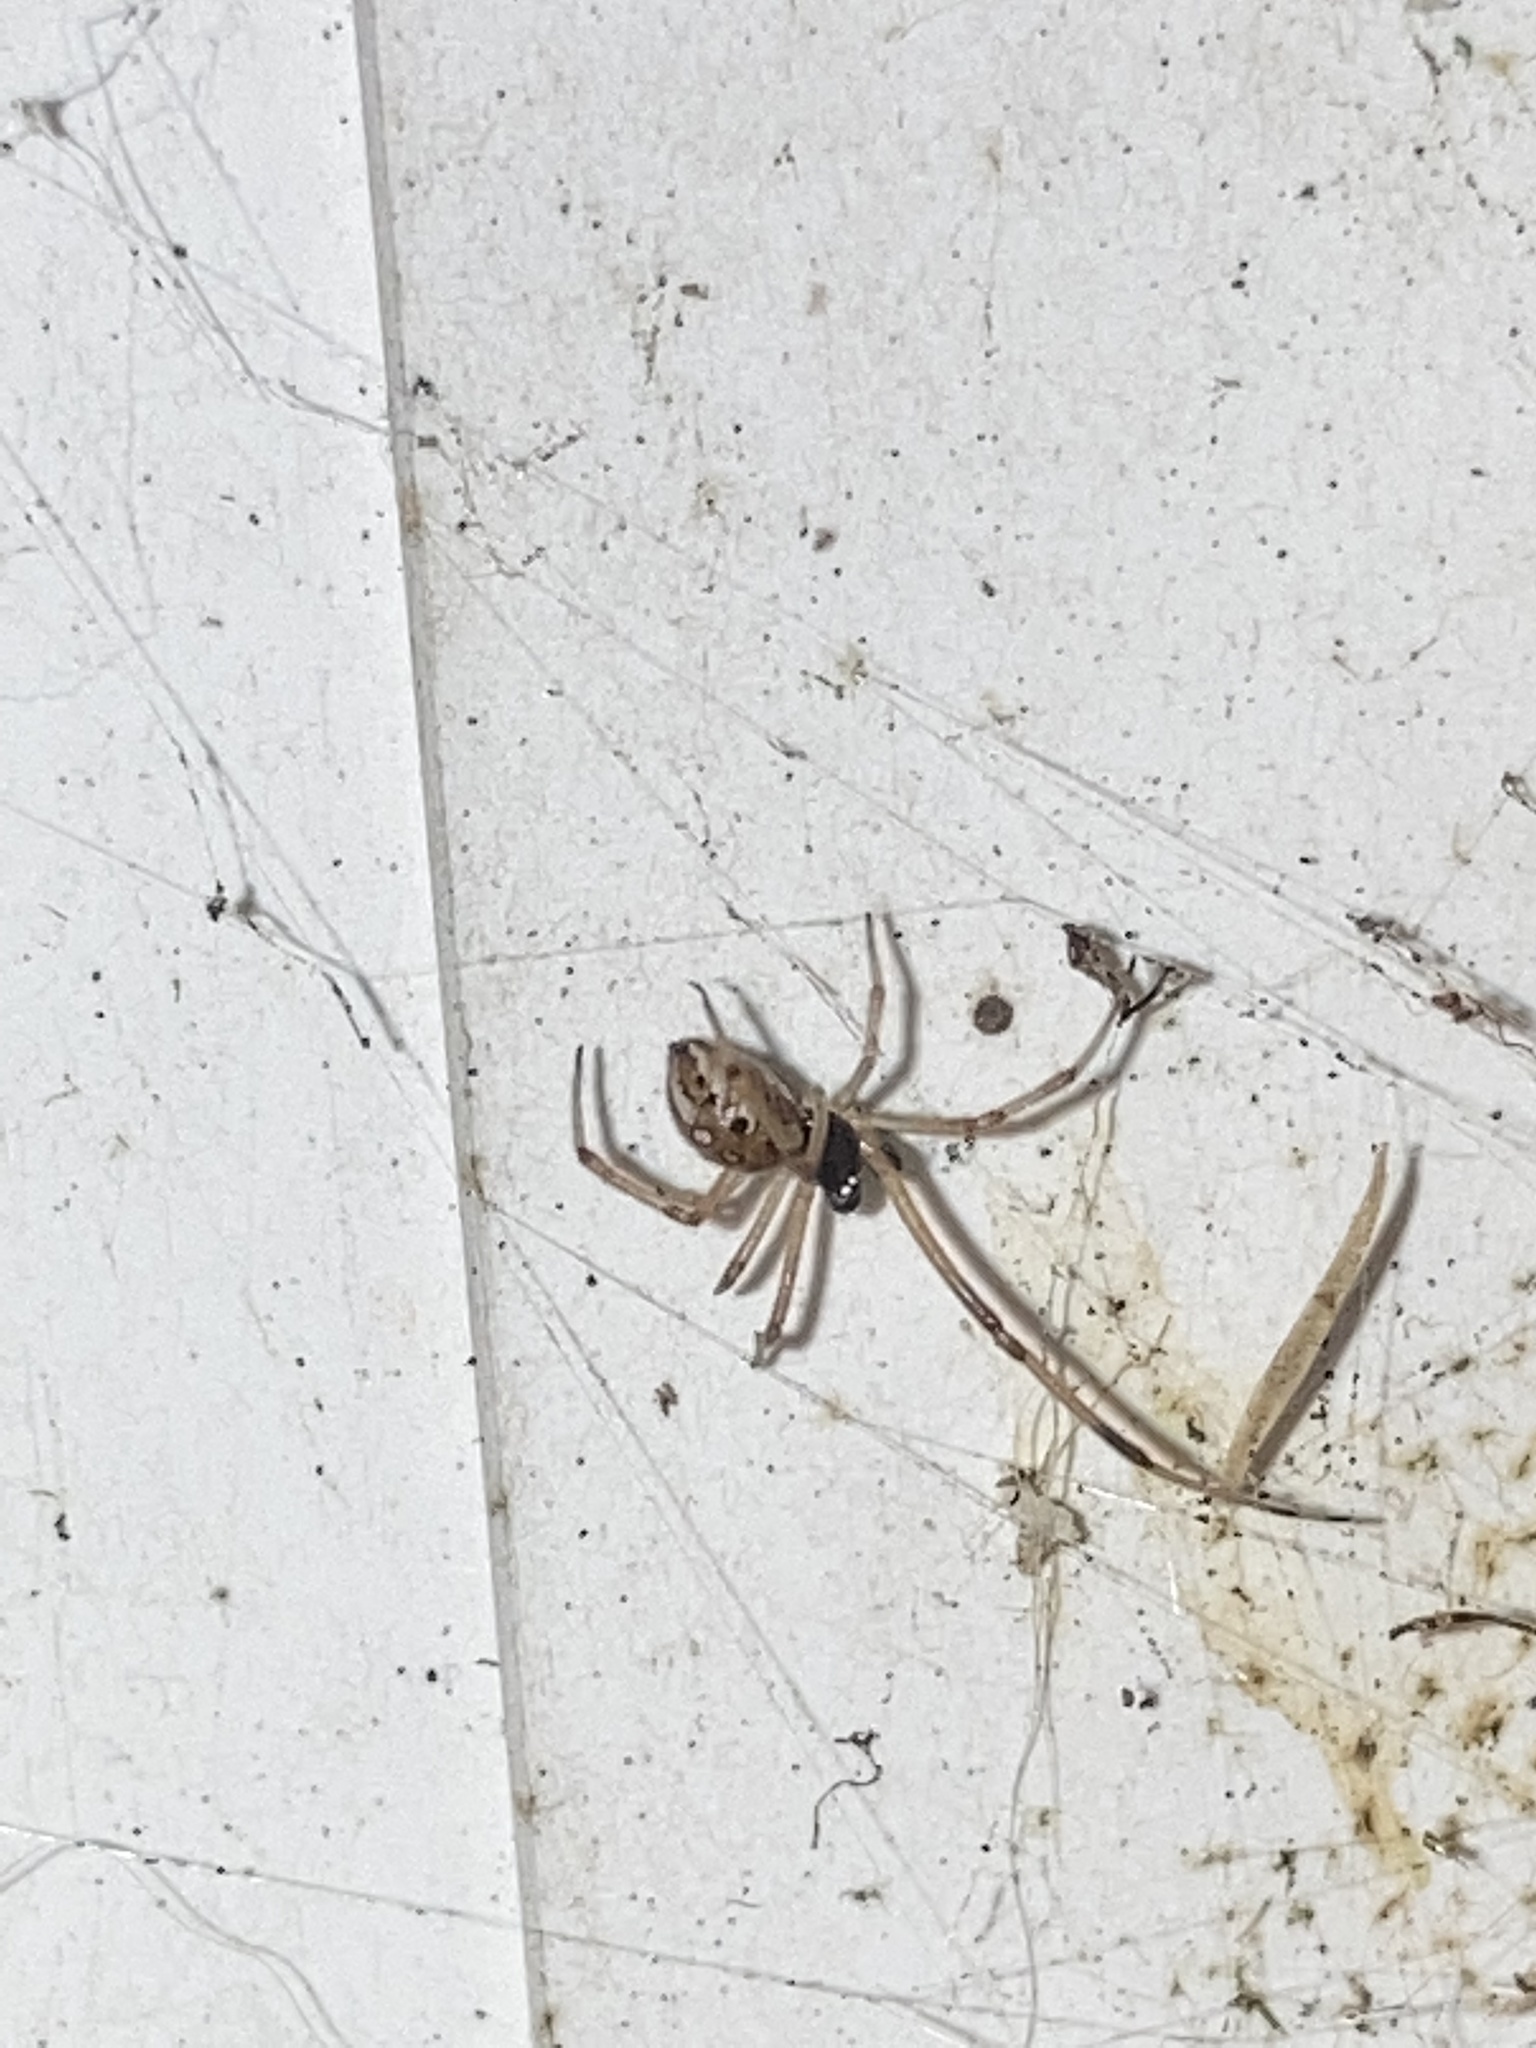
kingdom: Animalia
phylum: Arthropoda
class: Arachnida
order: Araneae
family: Theridiidae
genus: Latrodectus
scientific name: Latrodectus geometricus
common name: Brown widow spider
